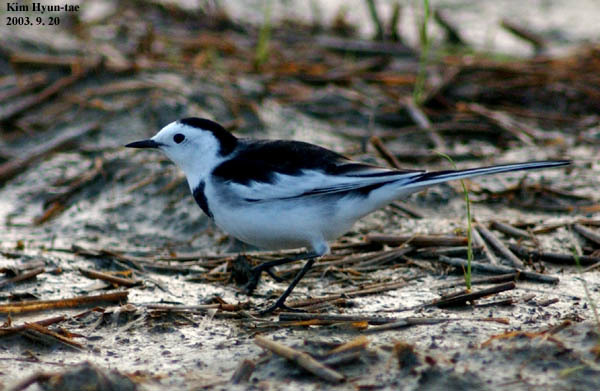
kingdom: Animalia
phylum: Chordata
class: Aves
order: Passeriformes
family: Motacillidae
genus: Motacilla
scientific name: Motacilla alba
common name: White wagtail
